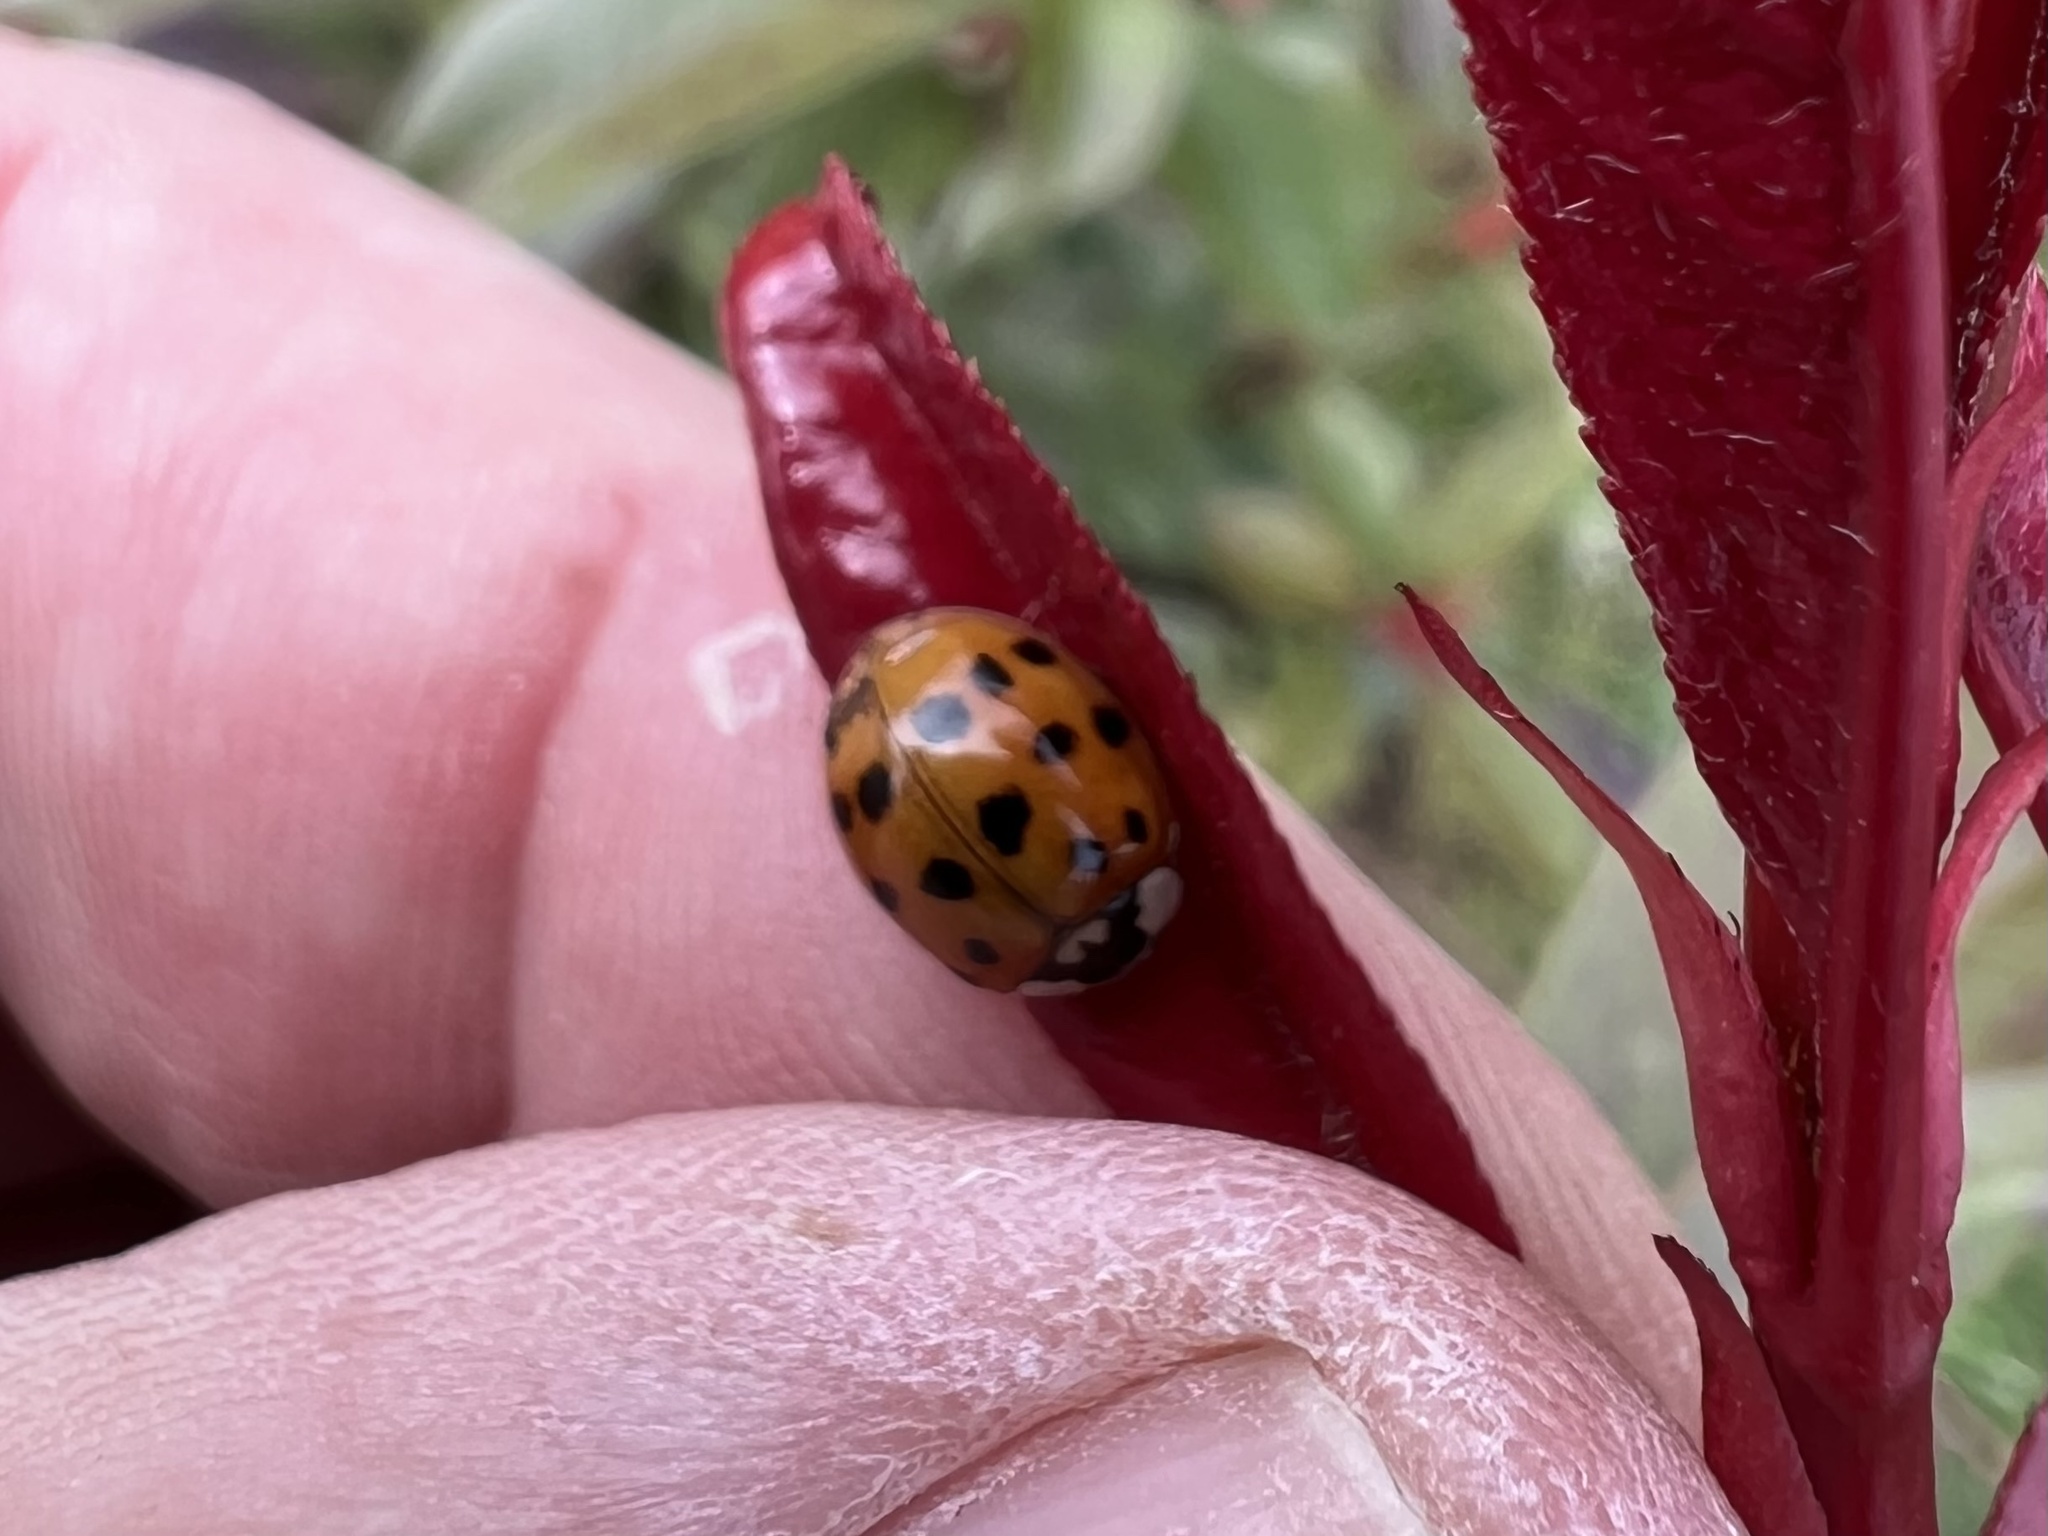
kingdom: Animalia
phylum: Arthropoda
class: Insecta
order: Coleoptera
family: Coccinellidae
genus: Harmonia
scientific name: Harmonia axyridis
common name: Harlequin ladybird
